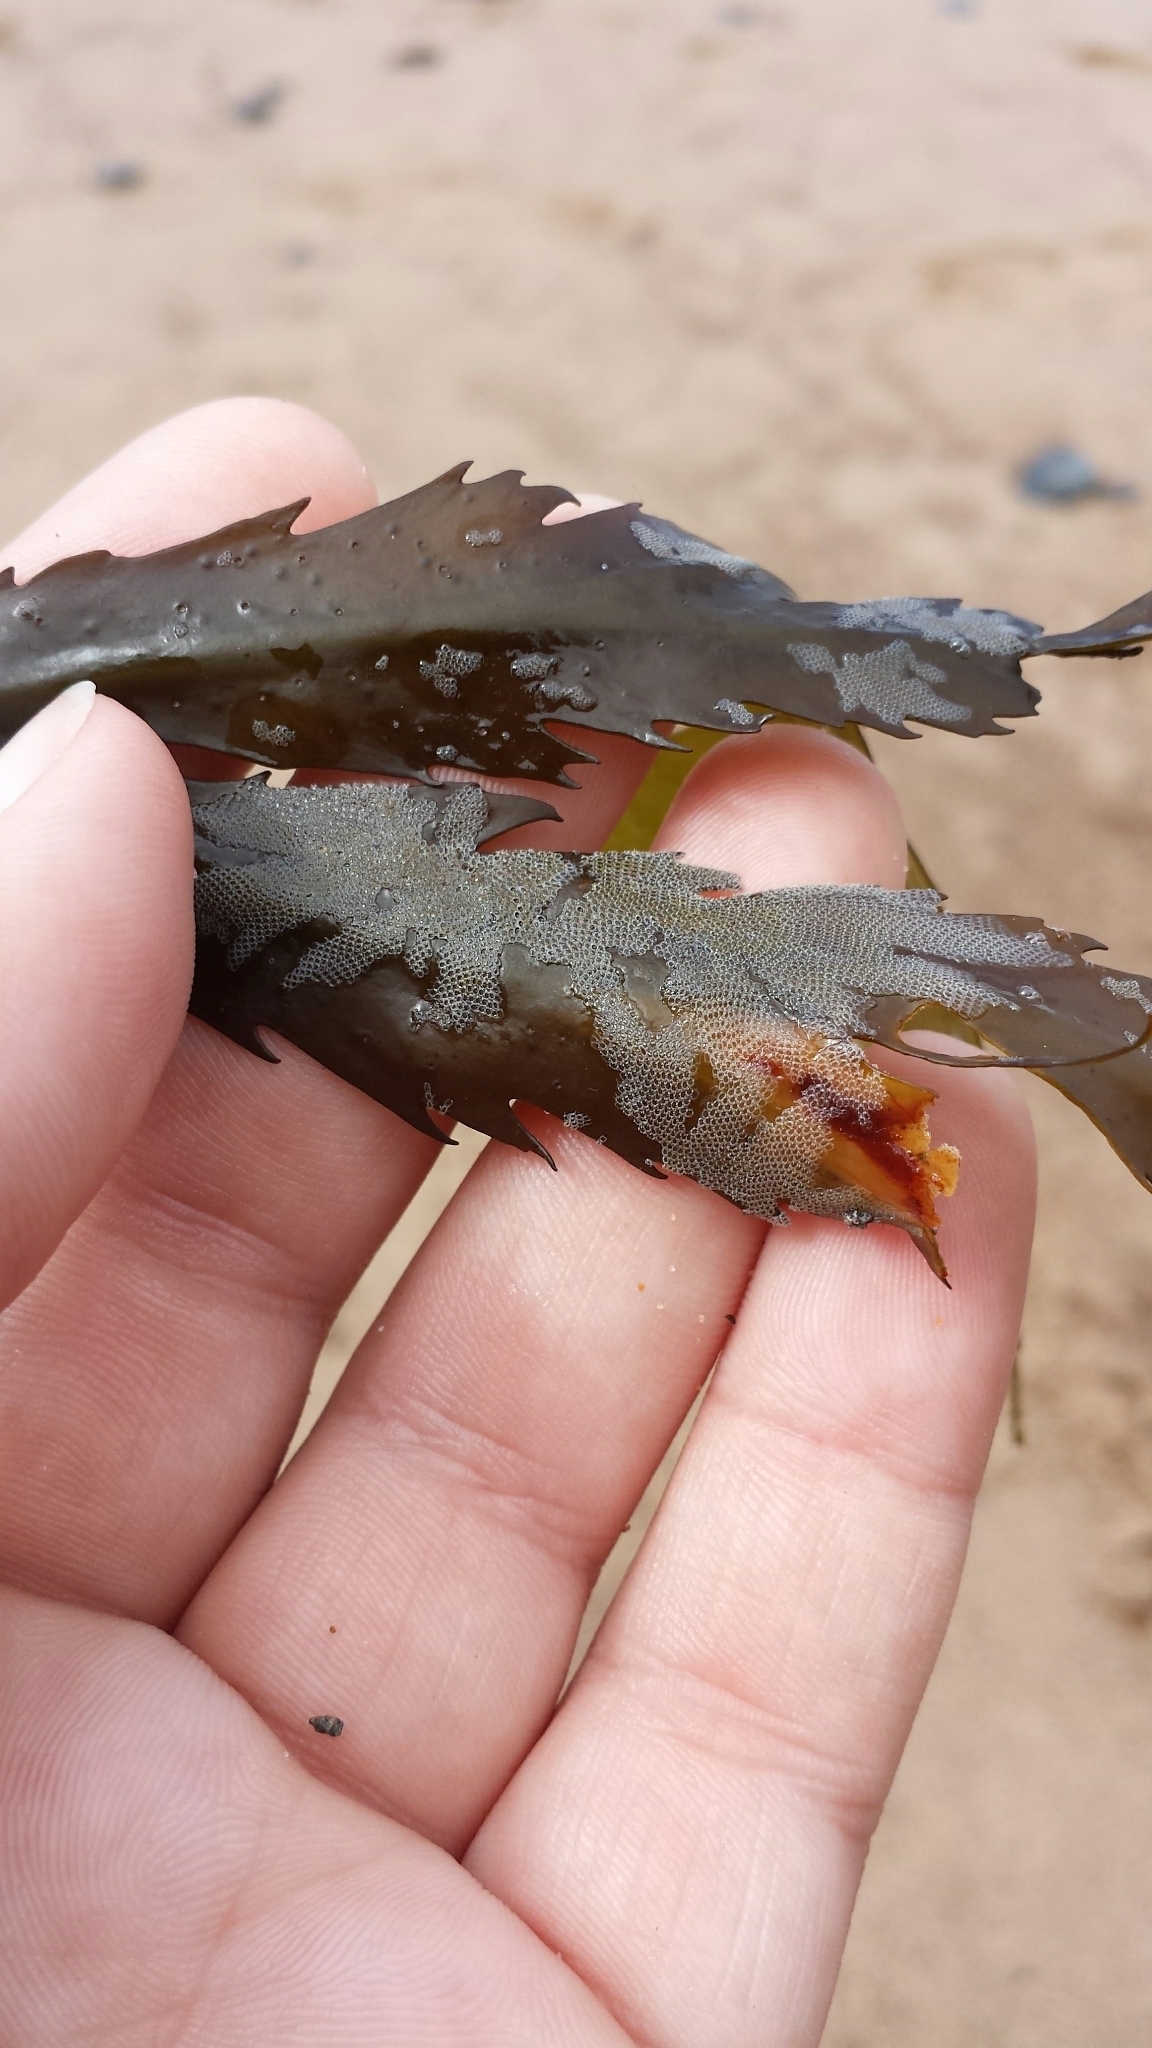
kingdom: Animalia
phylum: Bryozoa
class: Gymnolaemata
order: Cheilostomatida
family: Electridae
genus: Electra
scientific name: Electra pilosa
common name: Hairy sea-mat
